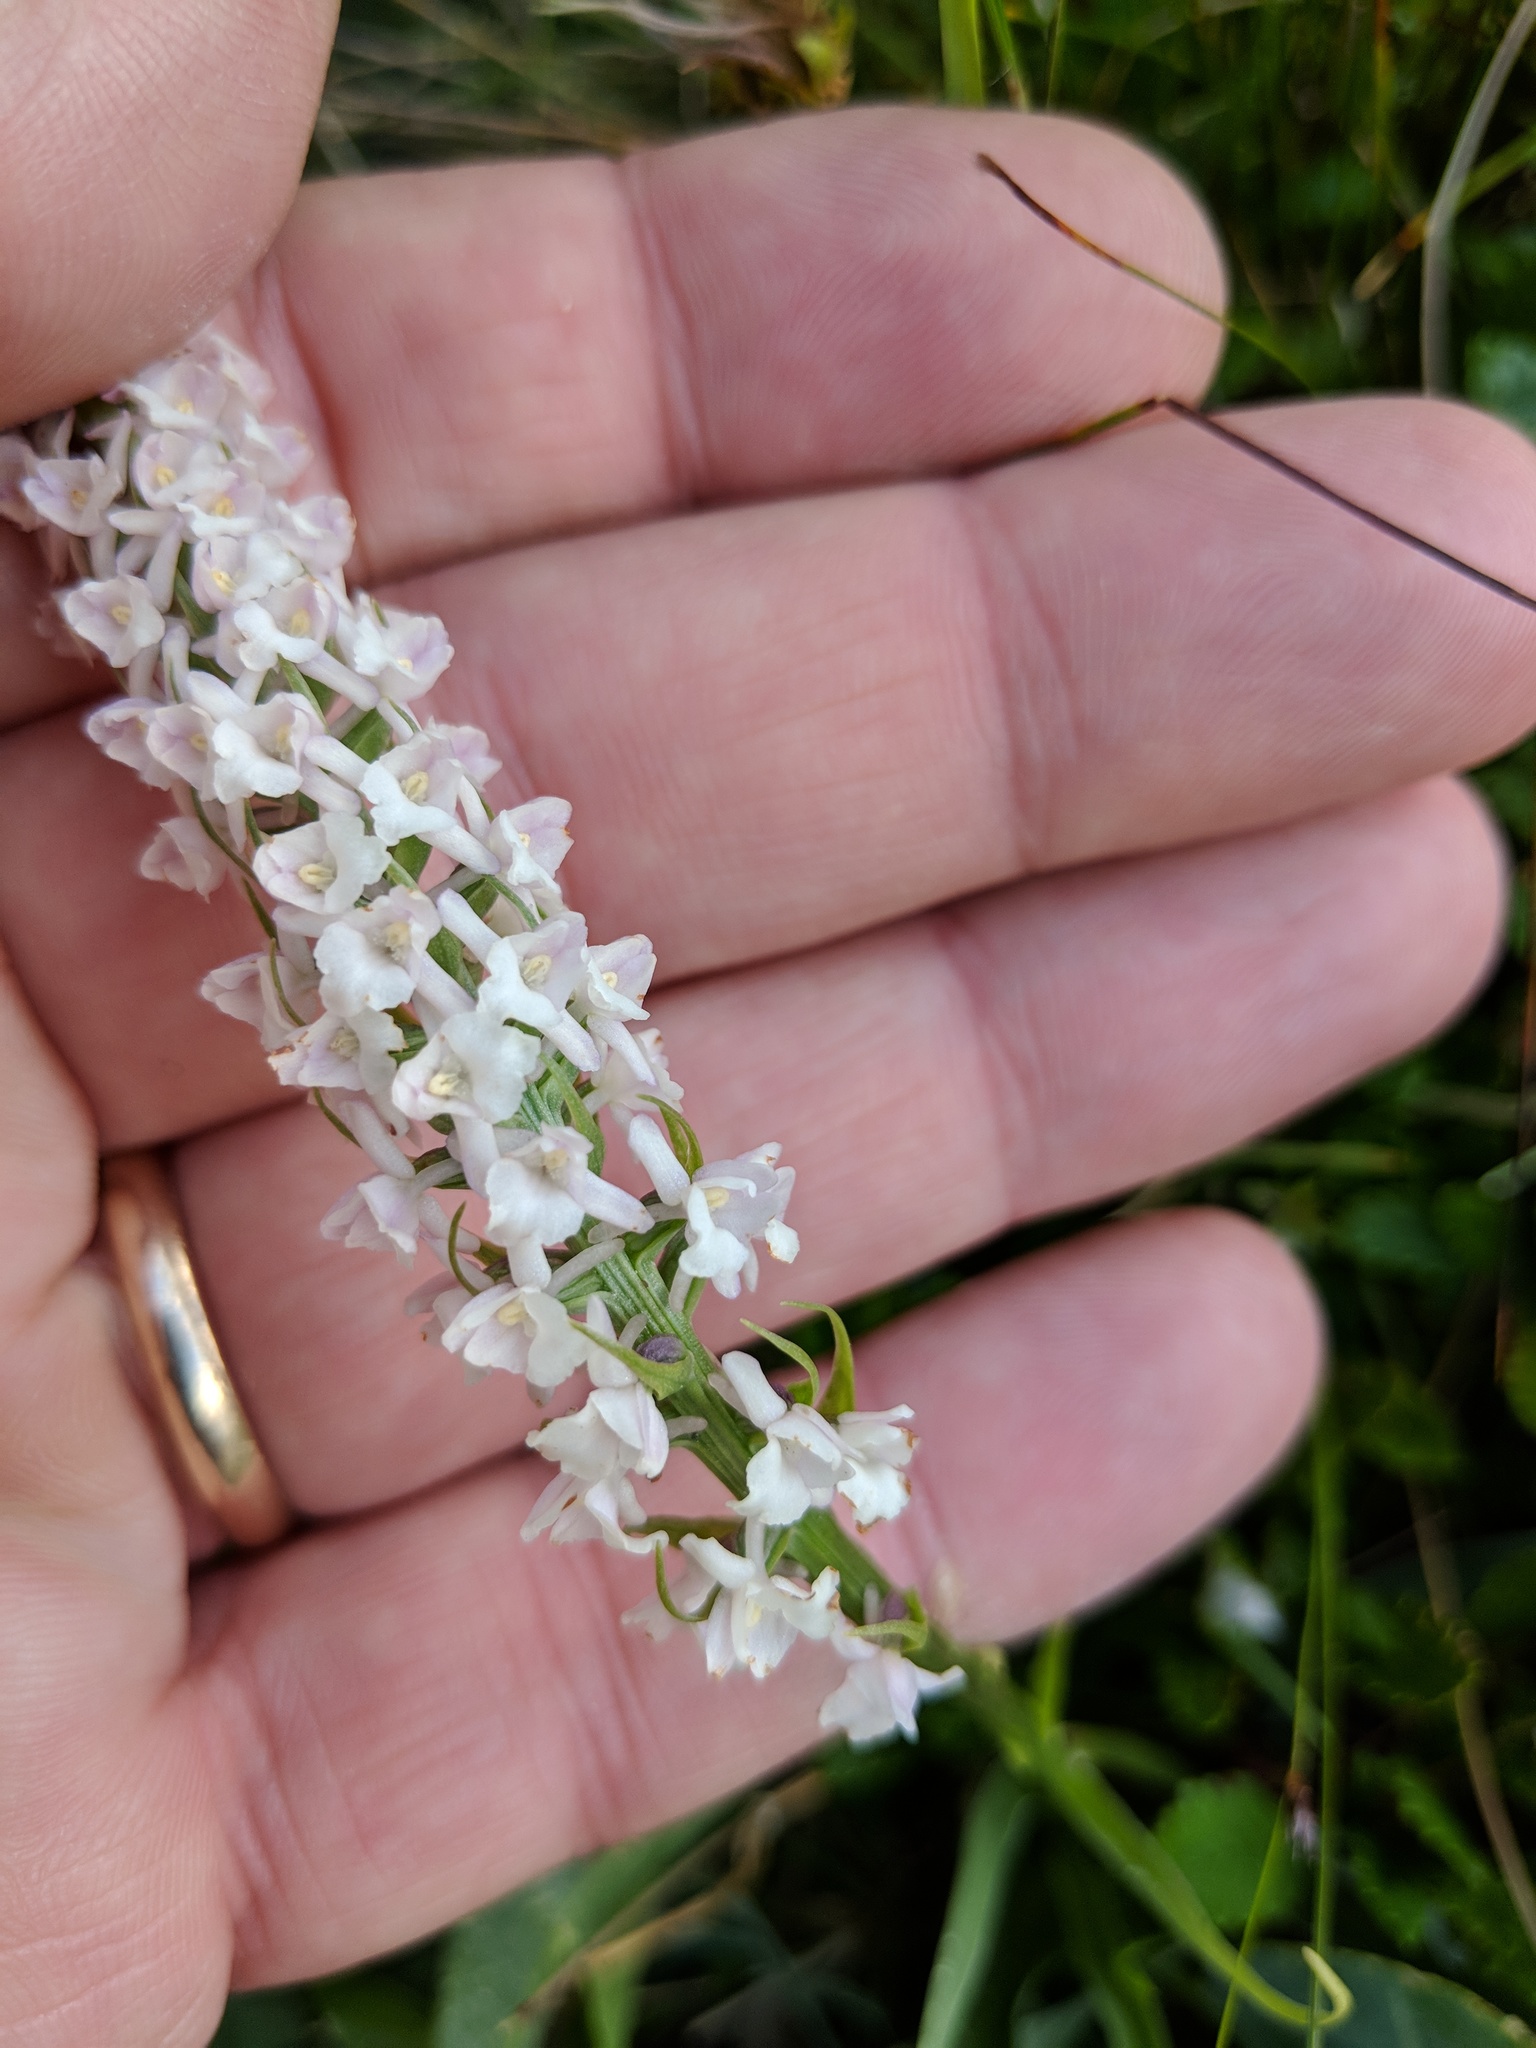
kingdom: Plantae
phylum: Tracheophyta
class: Liliopsida
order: Asparagales
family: Orchidaceae
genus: Gymnadenia
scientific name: Gymnadenia odoratissima
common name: Scented gymnadenia
